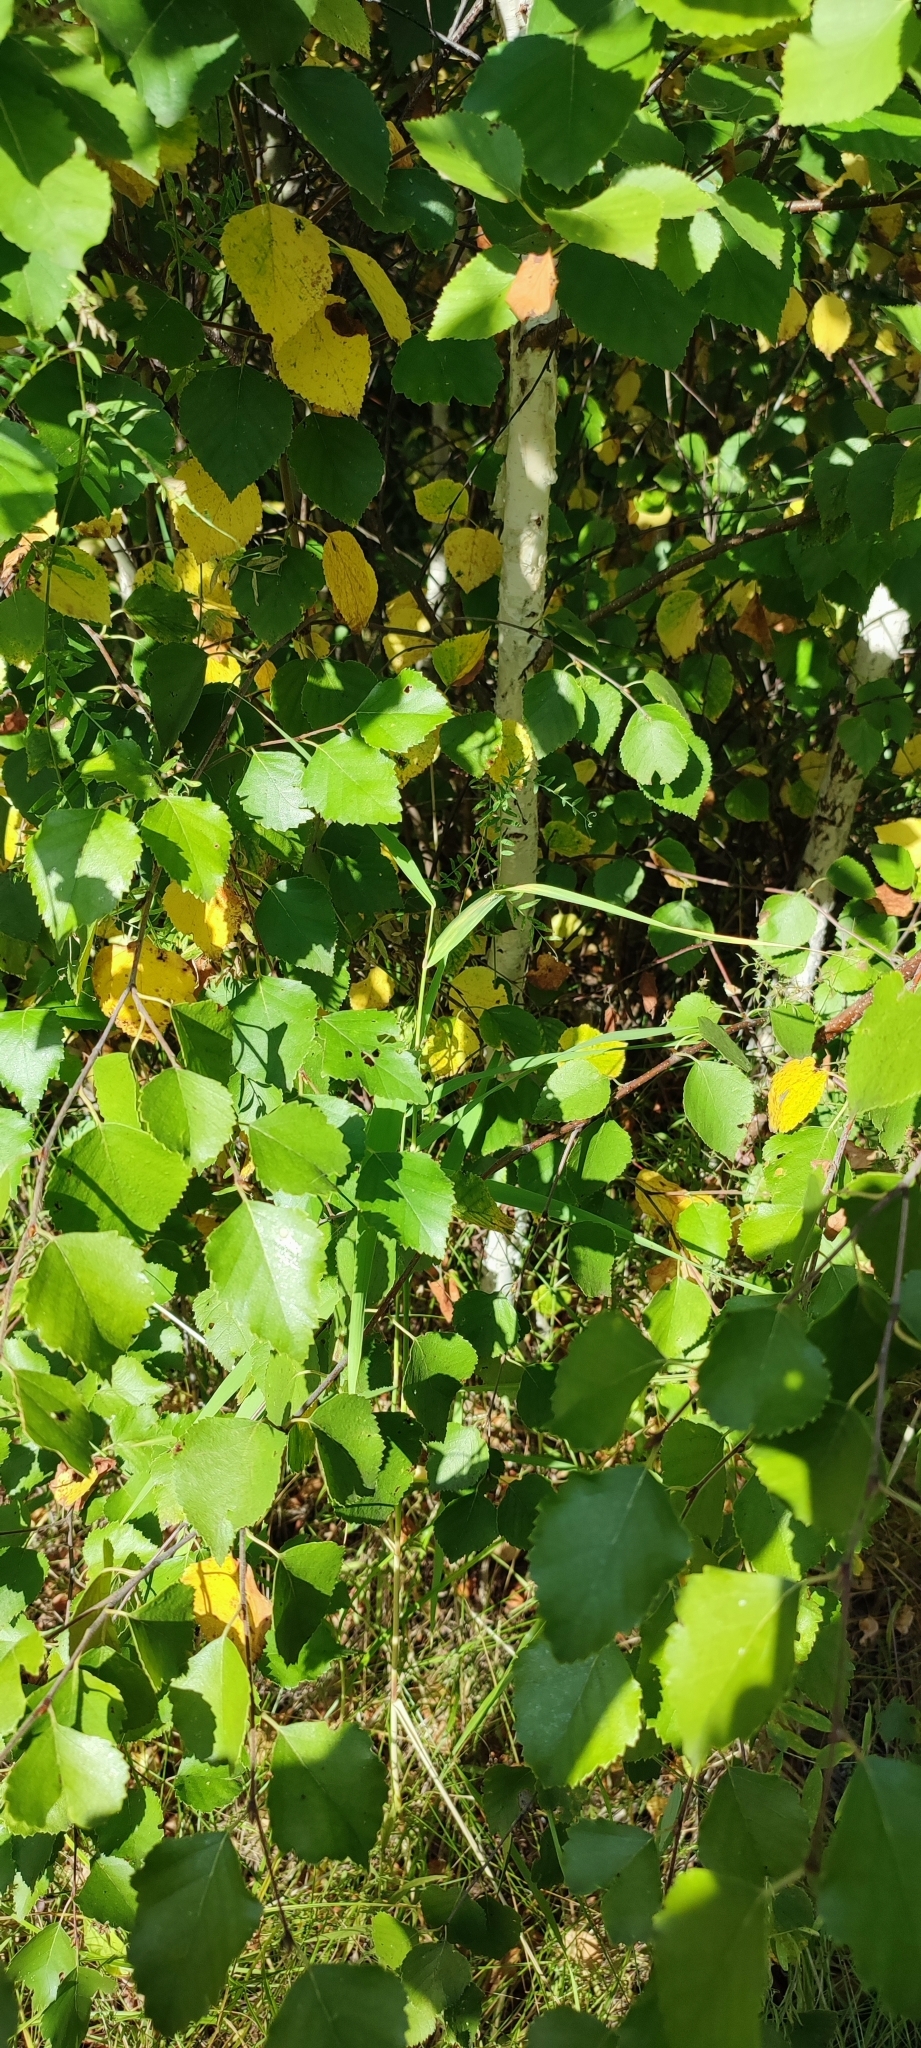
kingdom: Plantae
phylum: Tracheophyta
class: Magnoliopsida
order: Fagales
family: Betulaceae
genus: Betula
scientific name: Betula pubescens
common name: Downy birch
